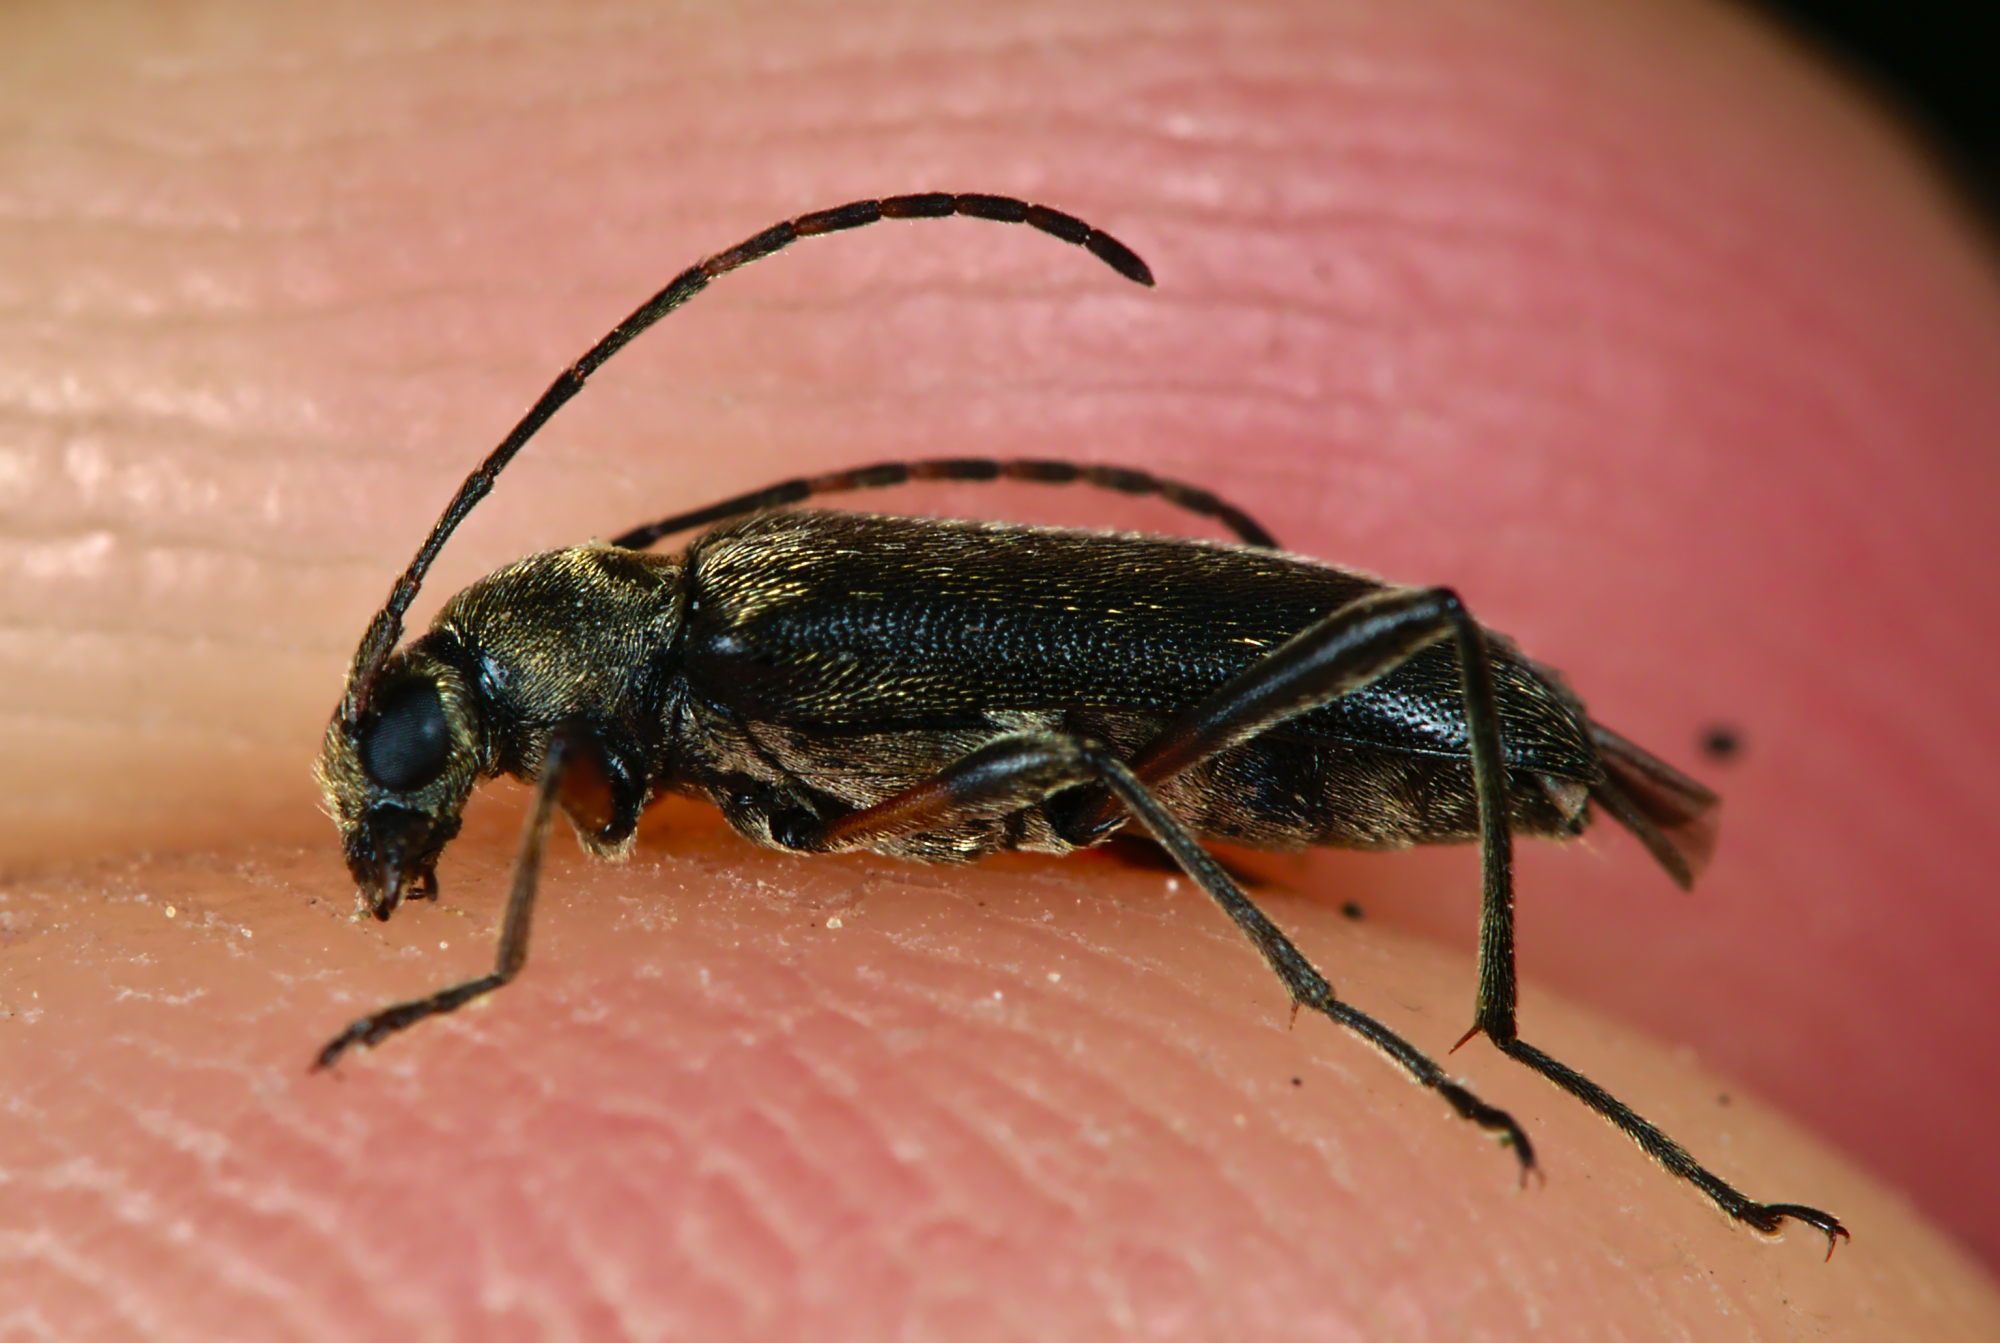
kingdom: Animalia
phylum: Arthropoda
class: Insecta
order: Coleoptera
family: Cerambycidae
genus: Grammoptera
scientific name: Grammoptera ruficornis
